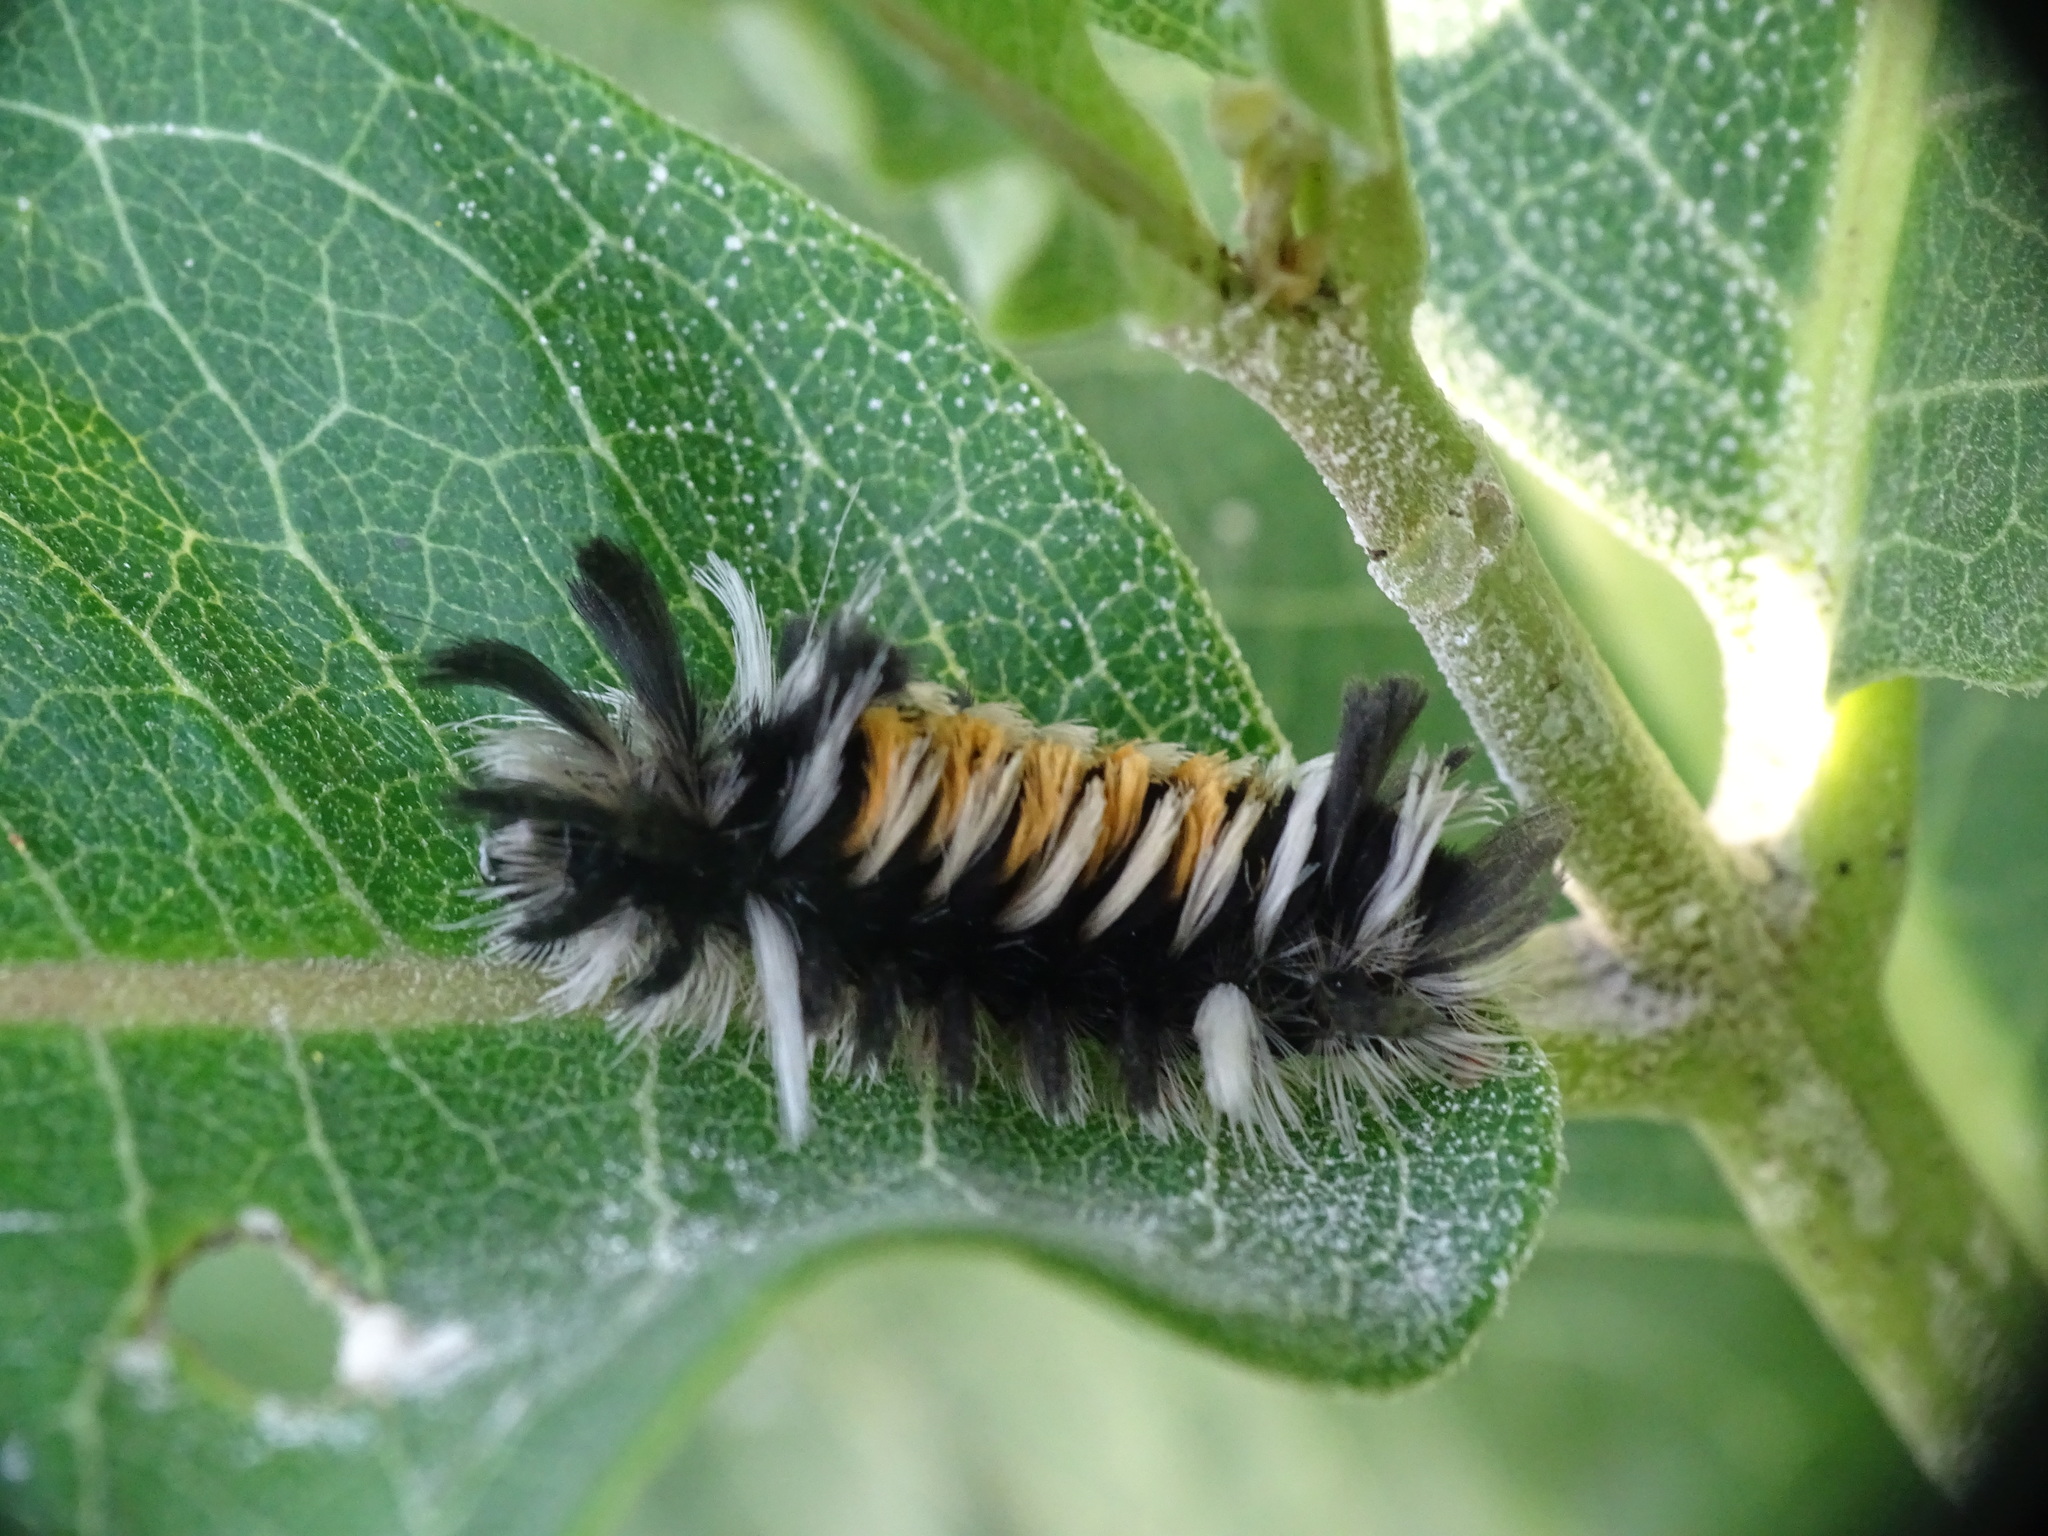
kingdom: Animalia
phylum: Arthropoda
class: Insecta
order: Lepidoptera
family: Erebidae
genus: Euchaetes
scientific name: Euchaetes egle
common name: Milkweed tussock moth
